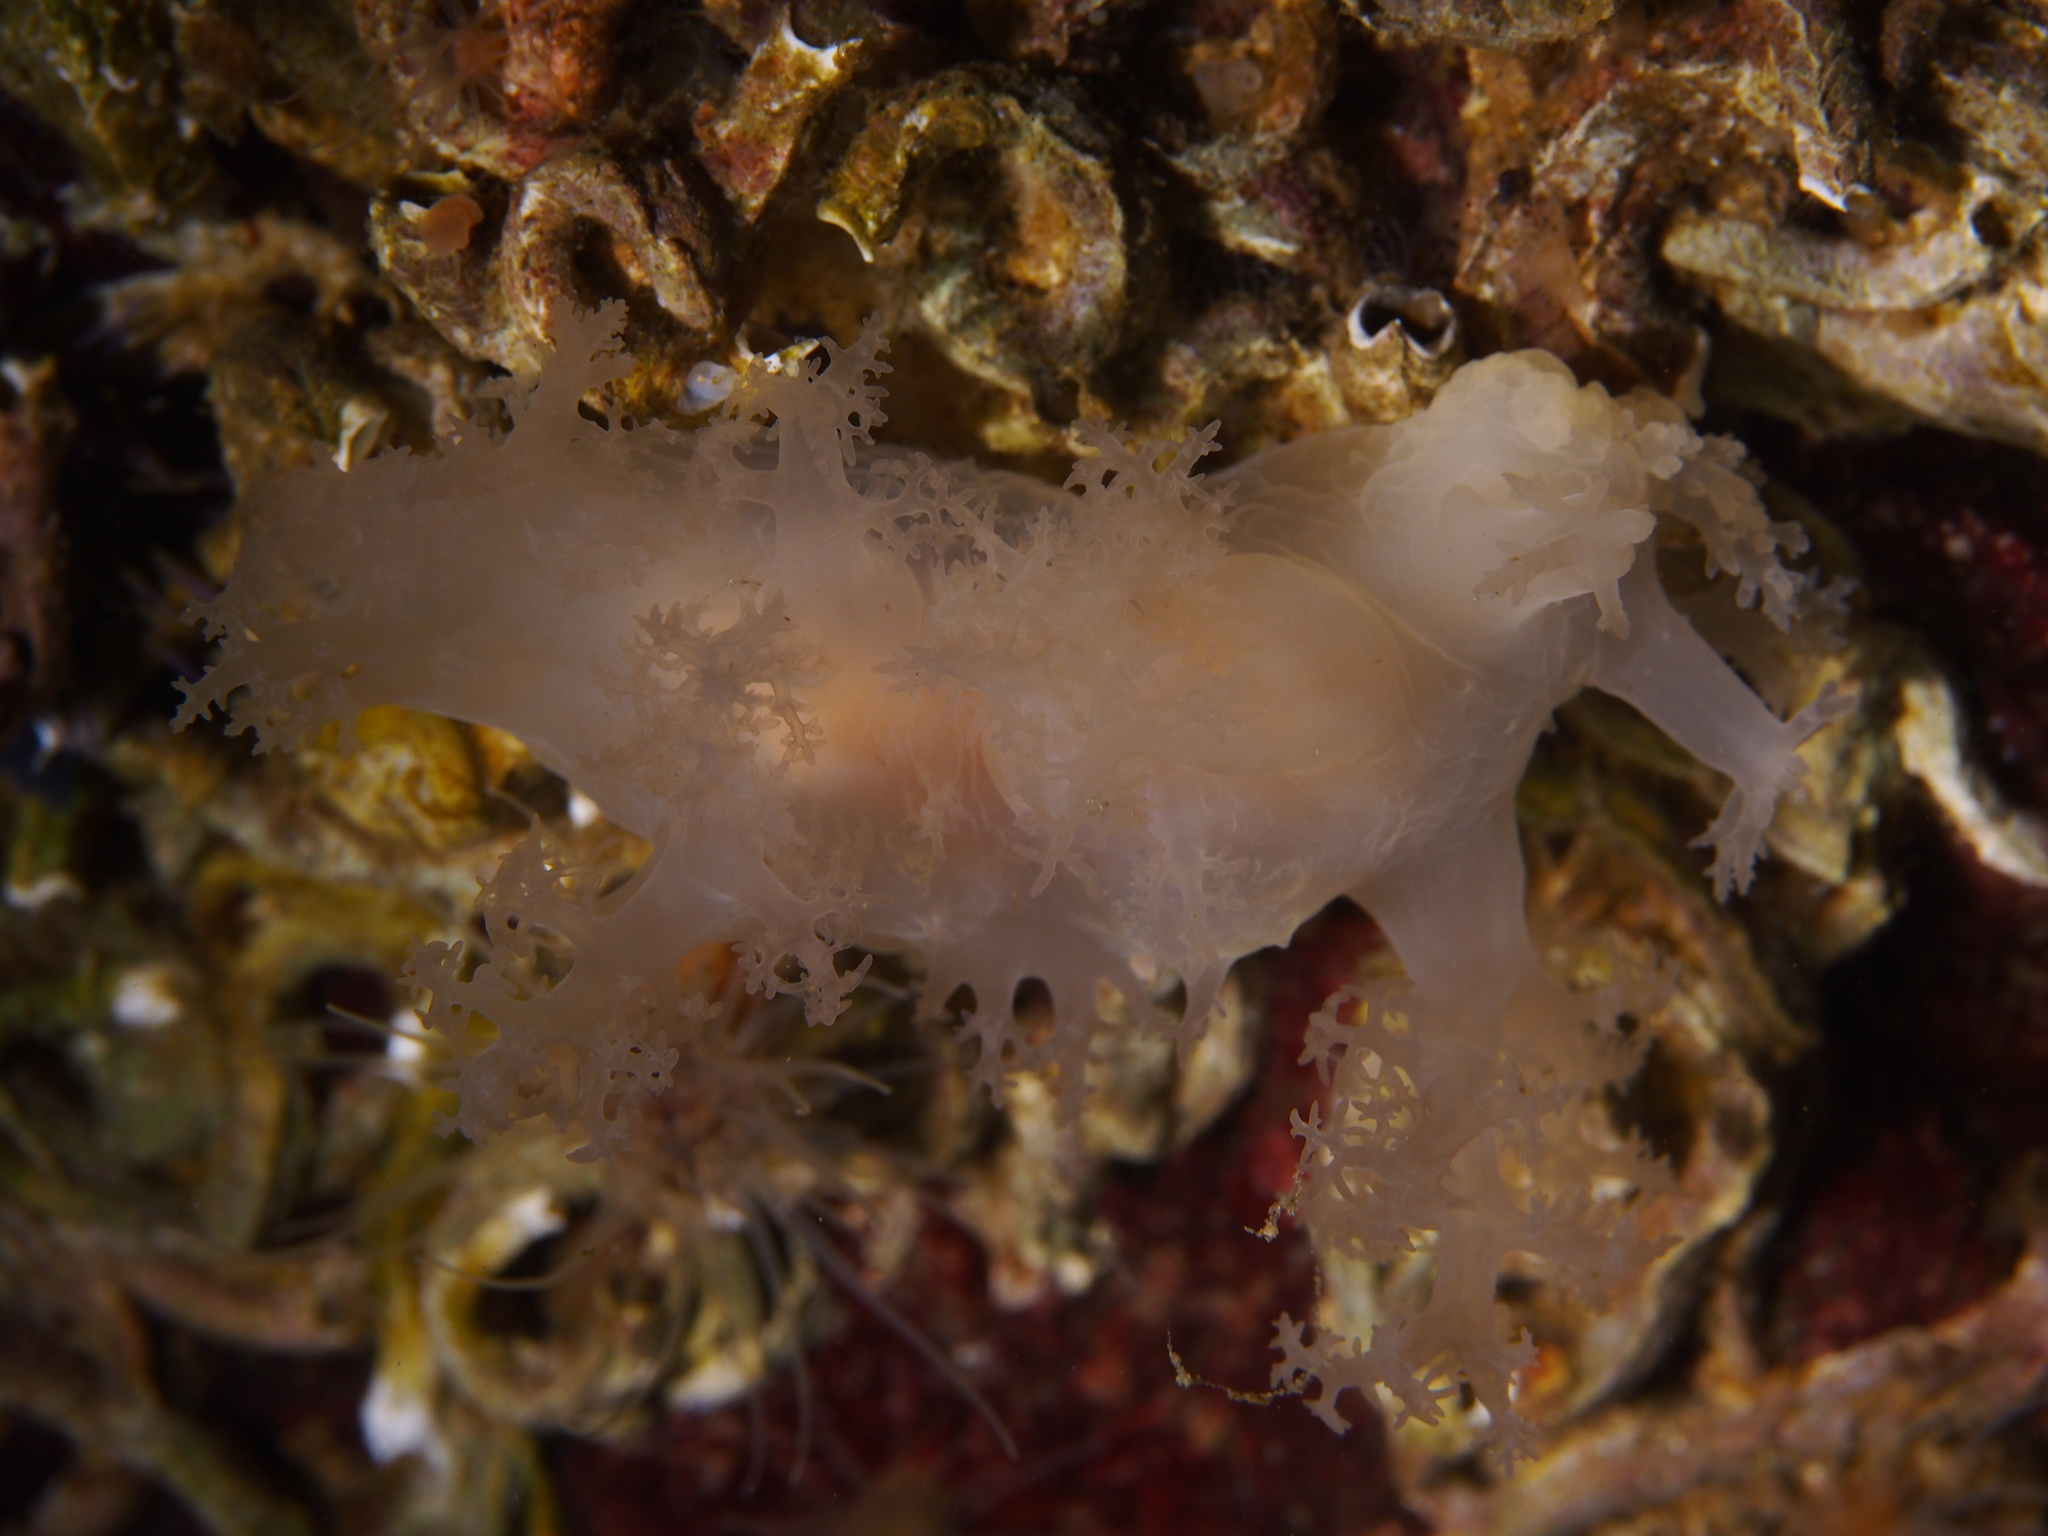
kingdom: Animalia
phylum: Mollusca
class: Gastropoda
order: Nudibranchia
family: Dendronotidae
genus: Dendronotus
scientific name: Dendronotus lacteus
